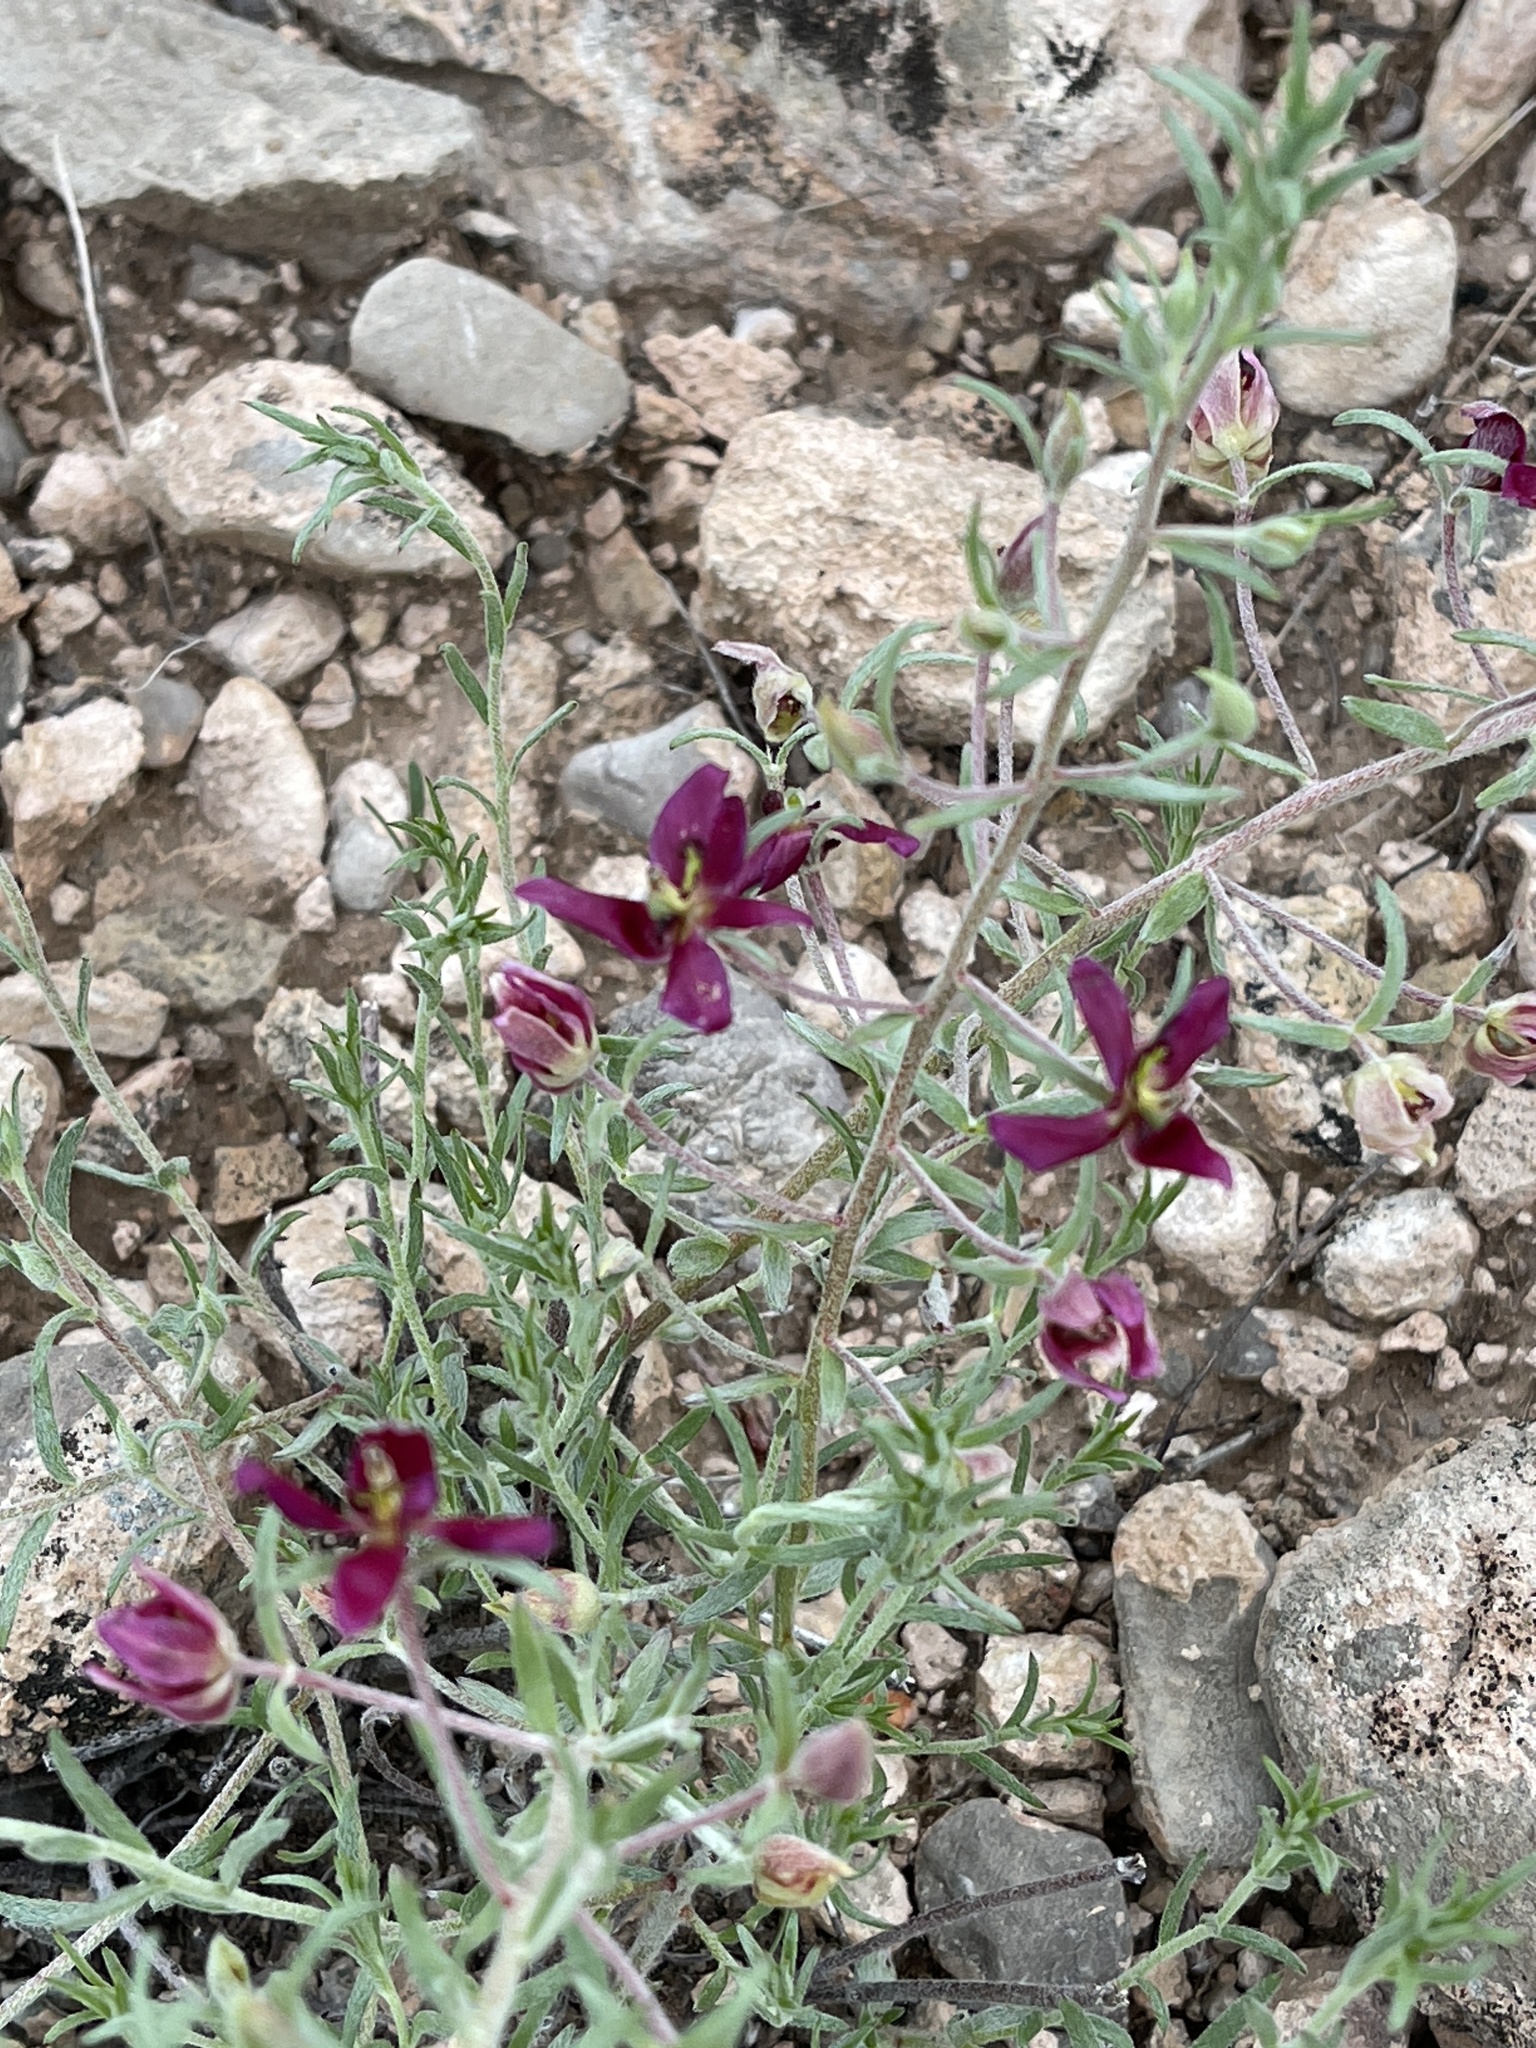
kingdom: Plantae
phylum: Tracheophyta
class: Magnoliopsida
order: Zygophyllales
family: Krameriaceae
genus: Krameria
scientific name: Krameria lanceolata
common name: Ratany
